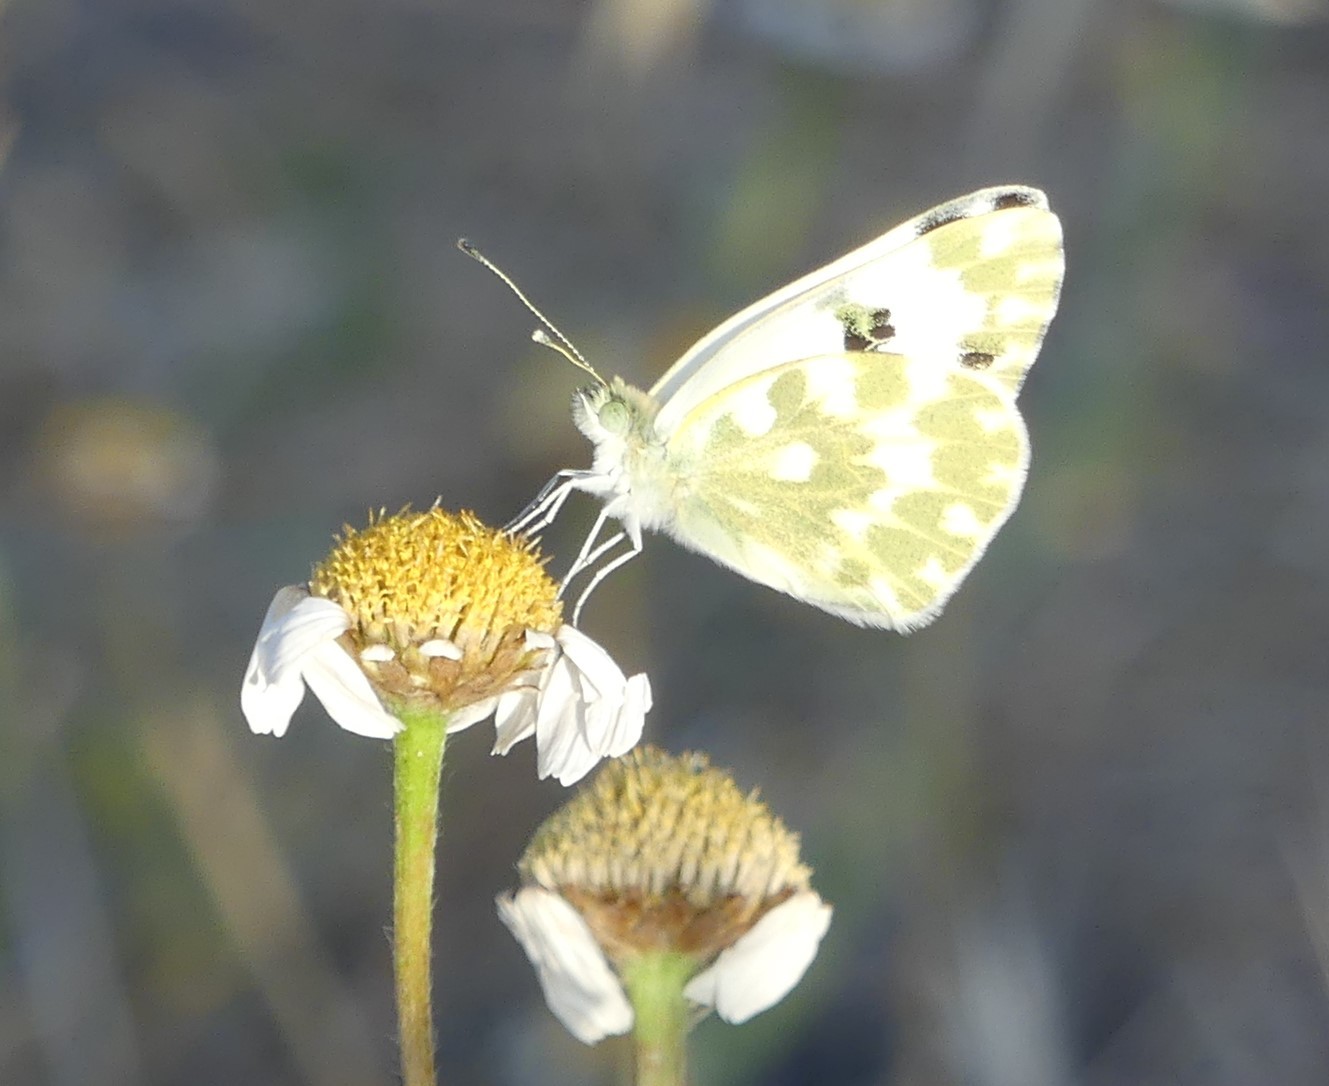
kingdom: Animalia
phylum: Arthropoda
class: Insecta
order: Lepidoptera
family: Pieridae
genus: Pontia
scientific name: Pontia daplidice
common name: Bath white
